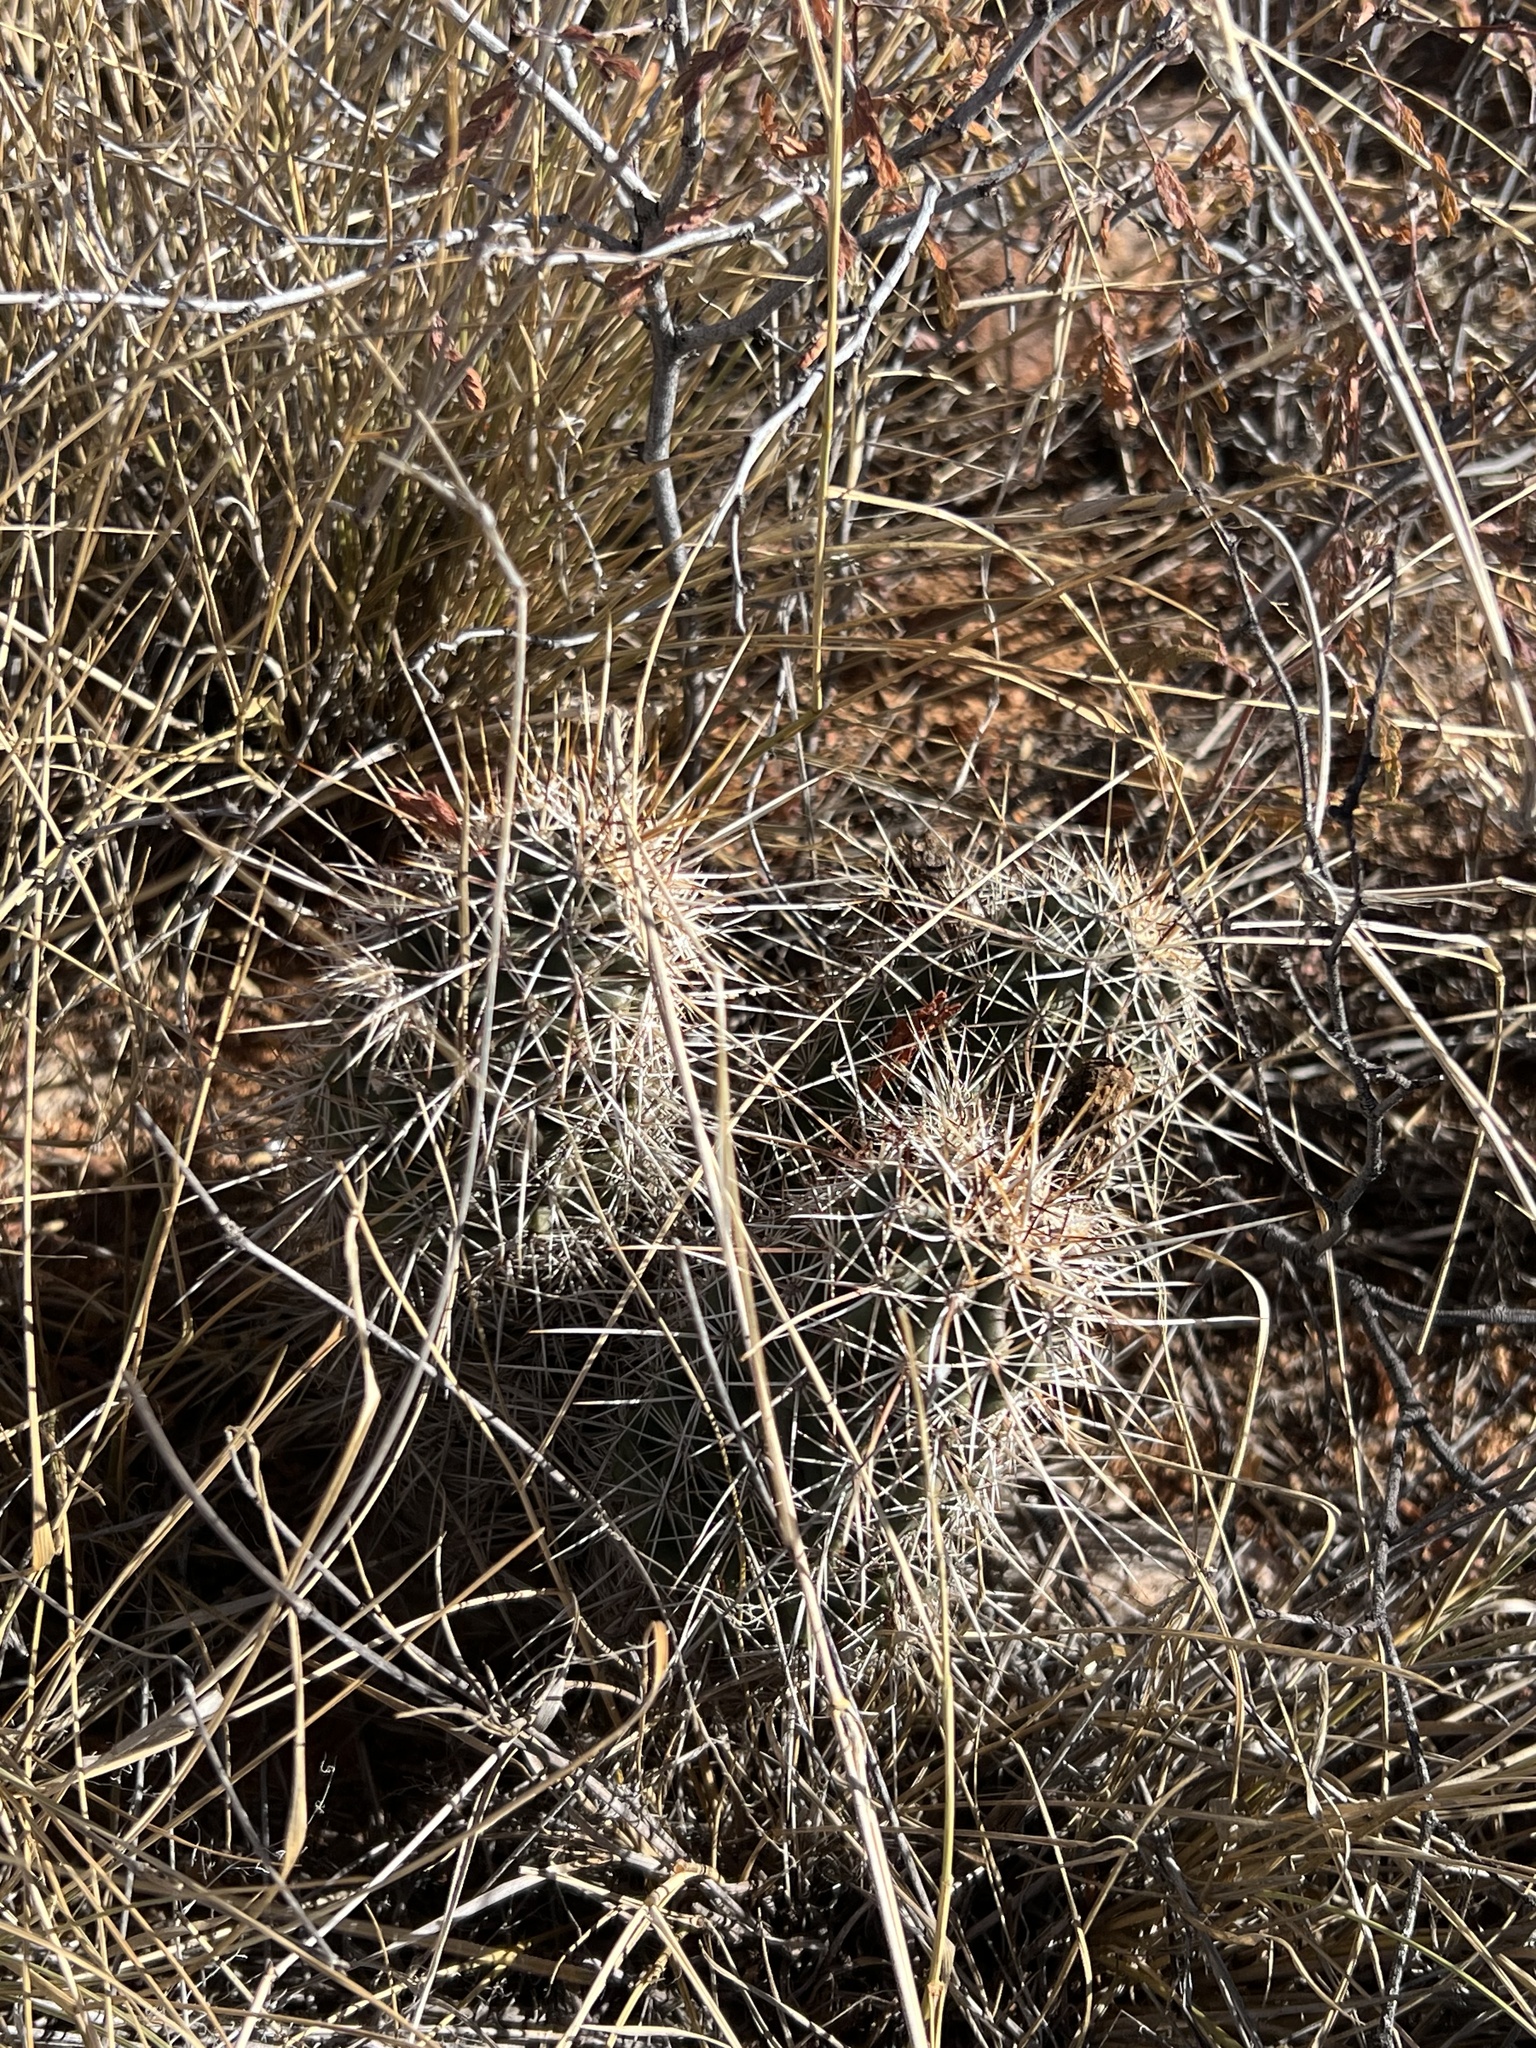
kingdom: Plantae
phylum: Tracheophyta
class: Magnoliopsida
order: Caryophyllales
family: Cactaceae
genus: Echinocereus
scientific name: Echinocereus fasciculatus
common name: Bundle hedgehog
